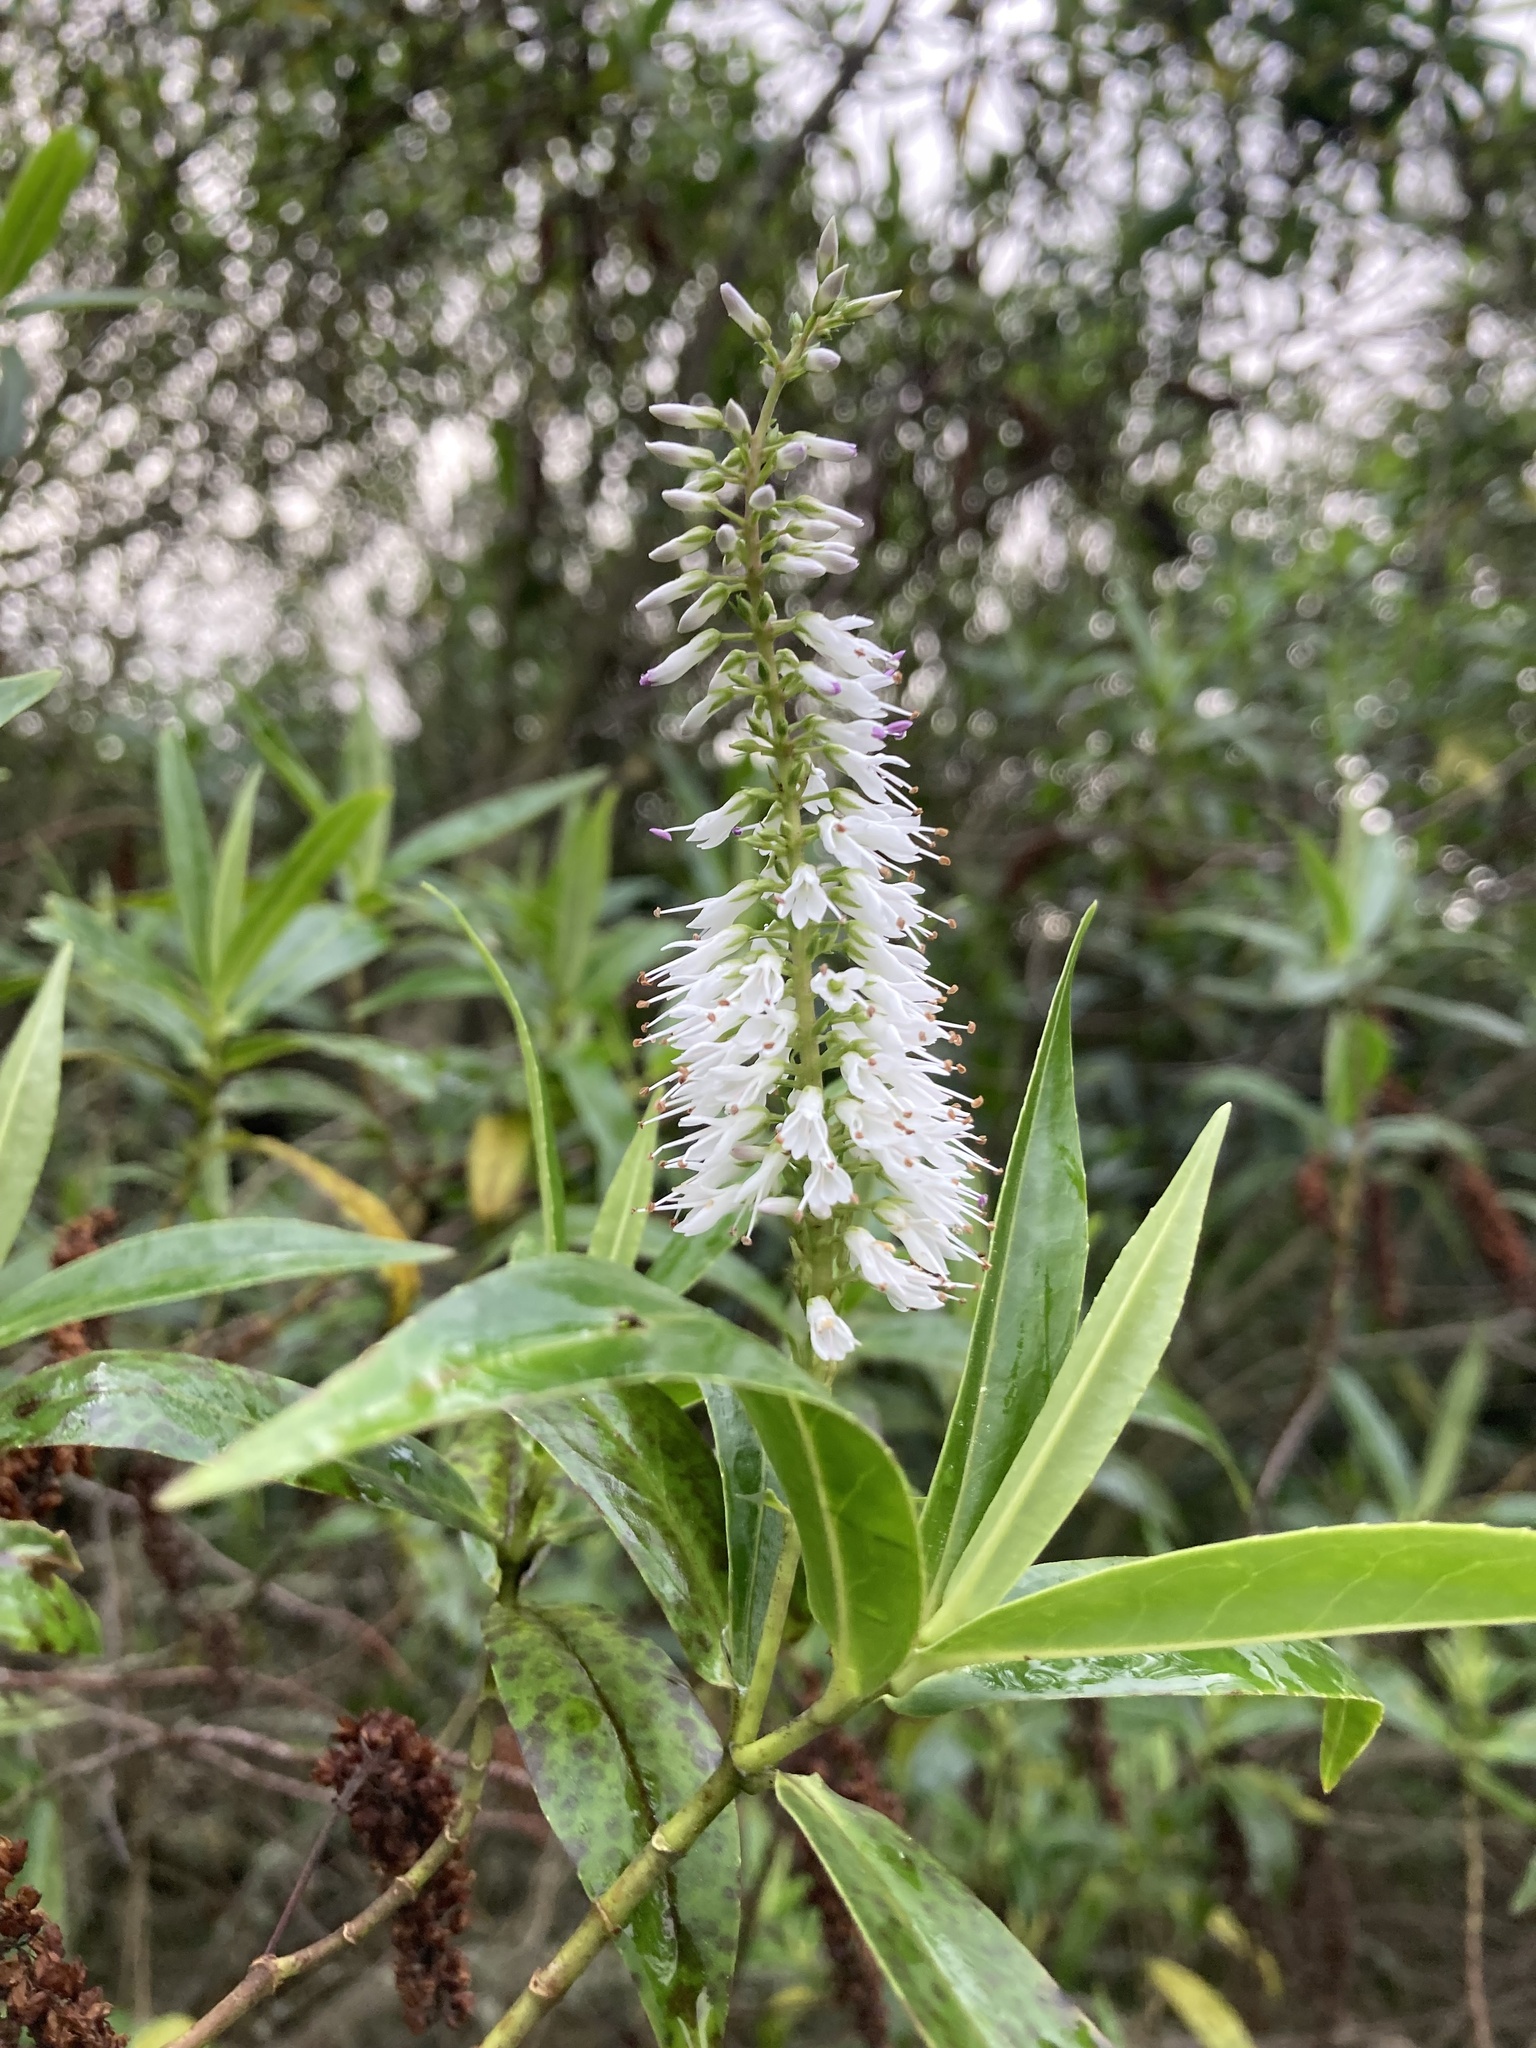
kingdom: Plantae
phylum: Tracheophyta
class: Magnoliopsida
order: Lamiales
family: Plantaginaceae
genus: Veronica
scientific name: Veronica salicifolia
